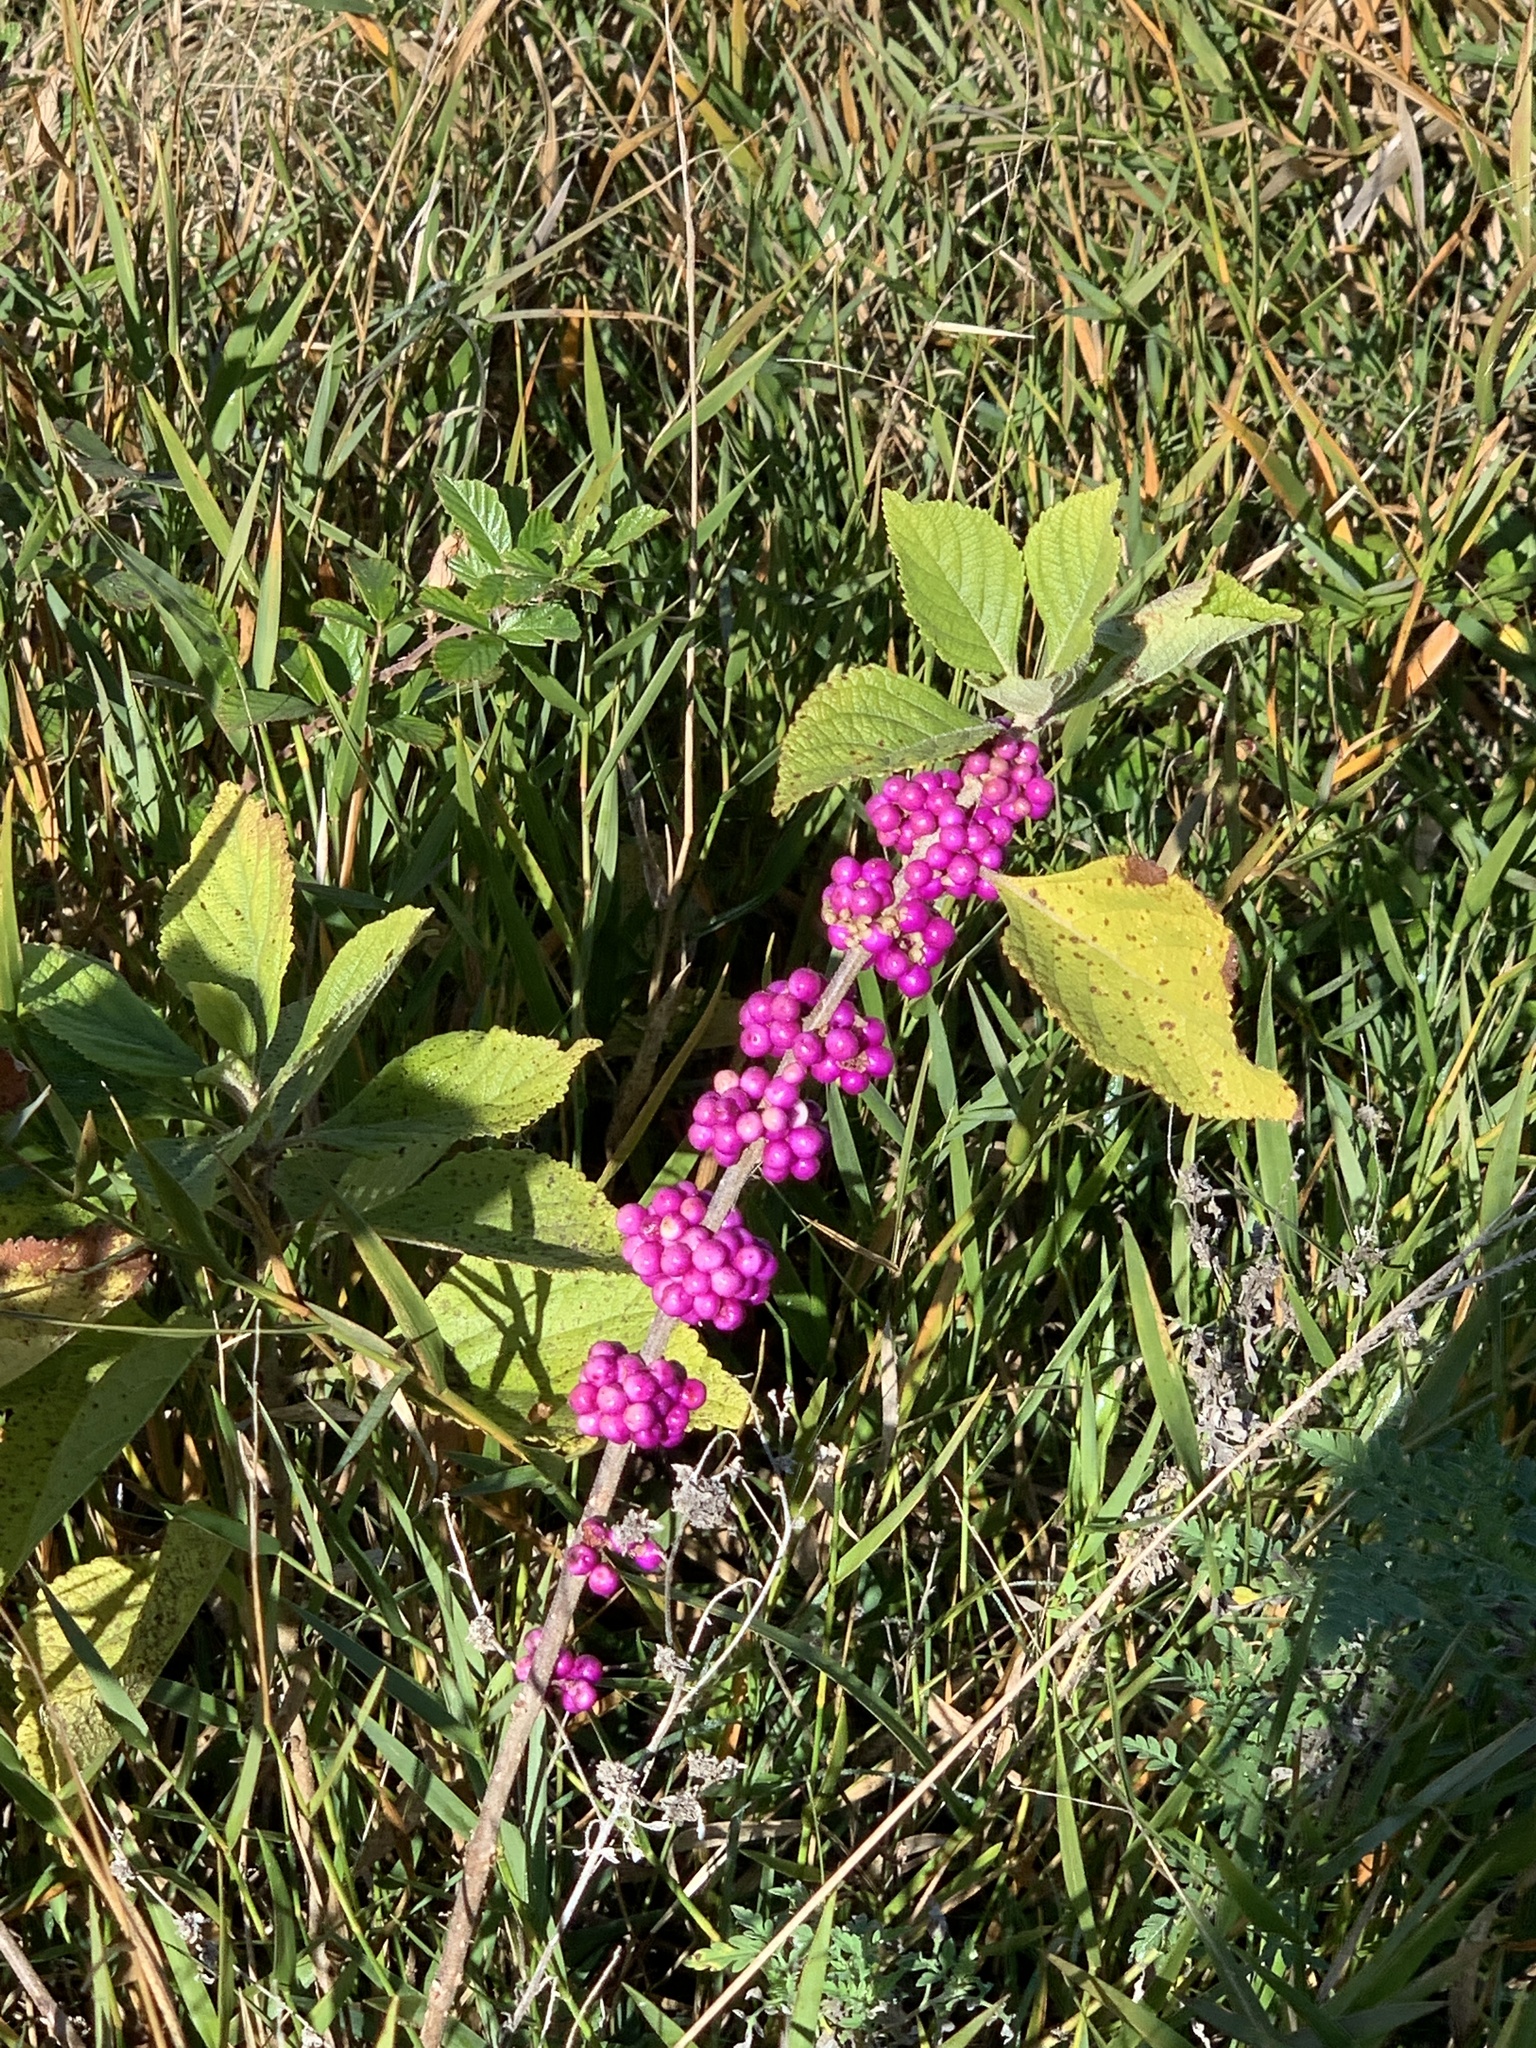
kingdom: Plantae
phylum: Tracheophyta
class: Magnoliopsida
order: Lamiales
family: Lamiaceae
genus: Callicarpa
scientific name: Callicarpa americana
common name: American beautyberry
